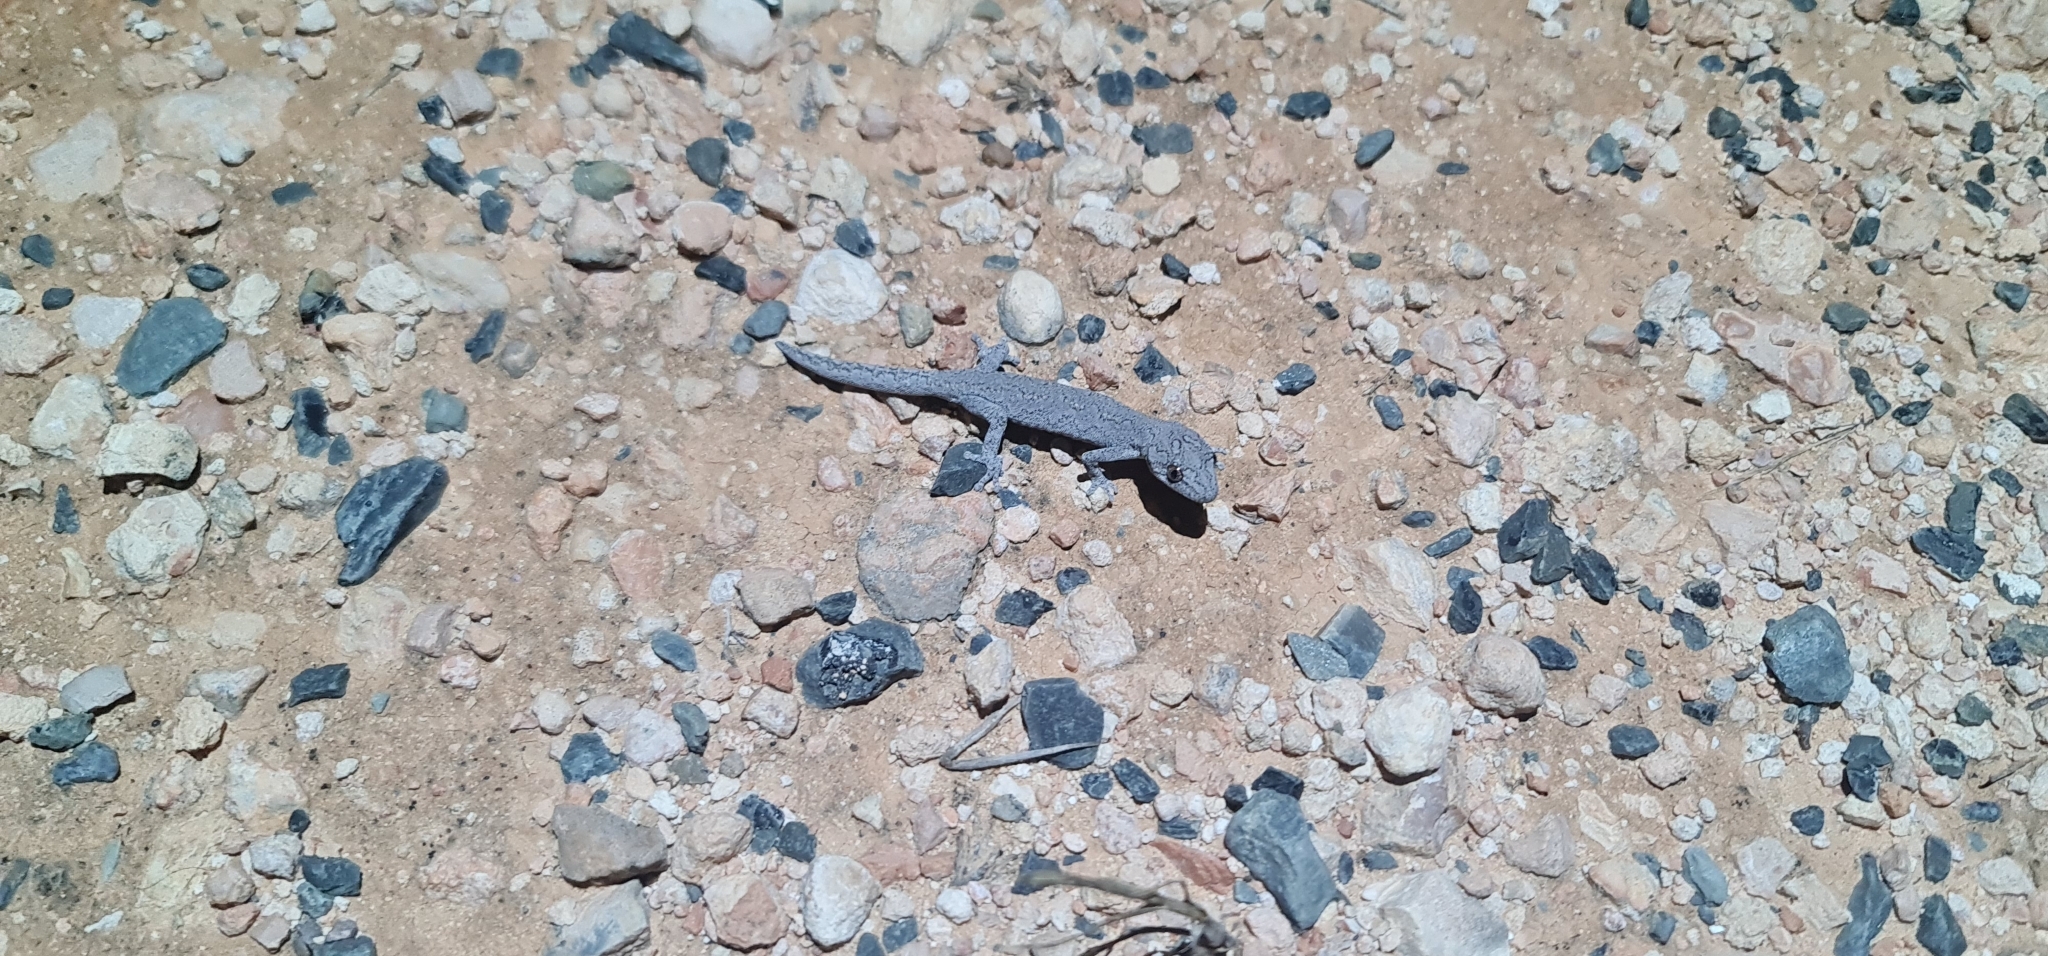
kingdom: Animalia
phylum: Chordata
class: Squamata
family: Diplodactylidae
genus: Strophurus
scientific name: Strophurus intermedius
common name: Eastern spiny-tailed gecko
